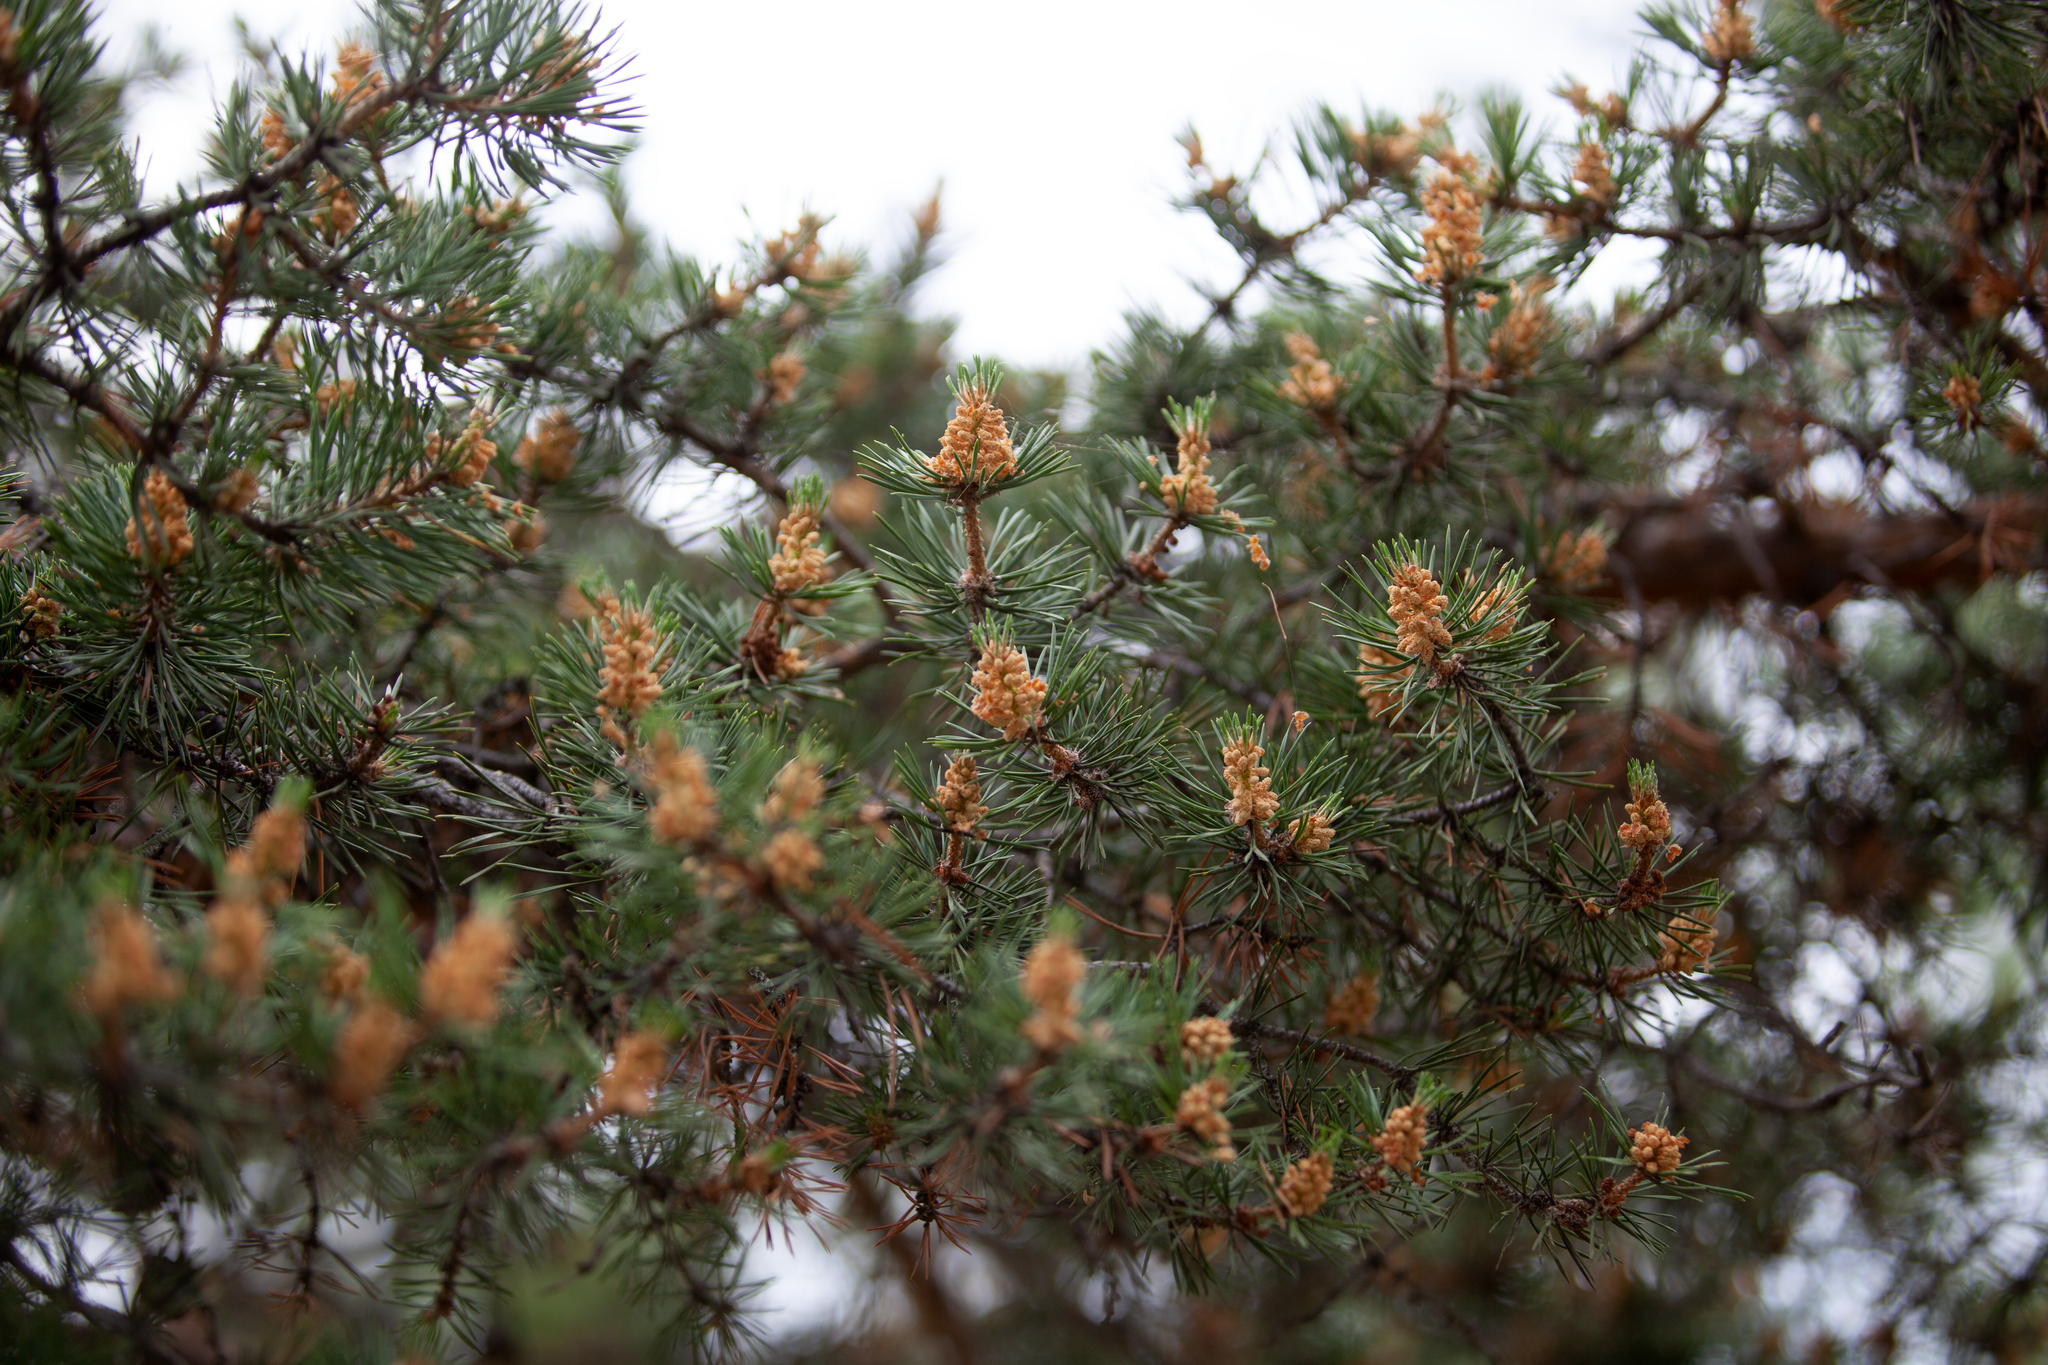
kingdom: Plantae
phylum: Tracheophyta
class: Pinopsida
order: Pinales
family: Pinaceae
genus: Pinus
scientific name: Pinus sylvestris
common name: Scots pine
